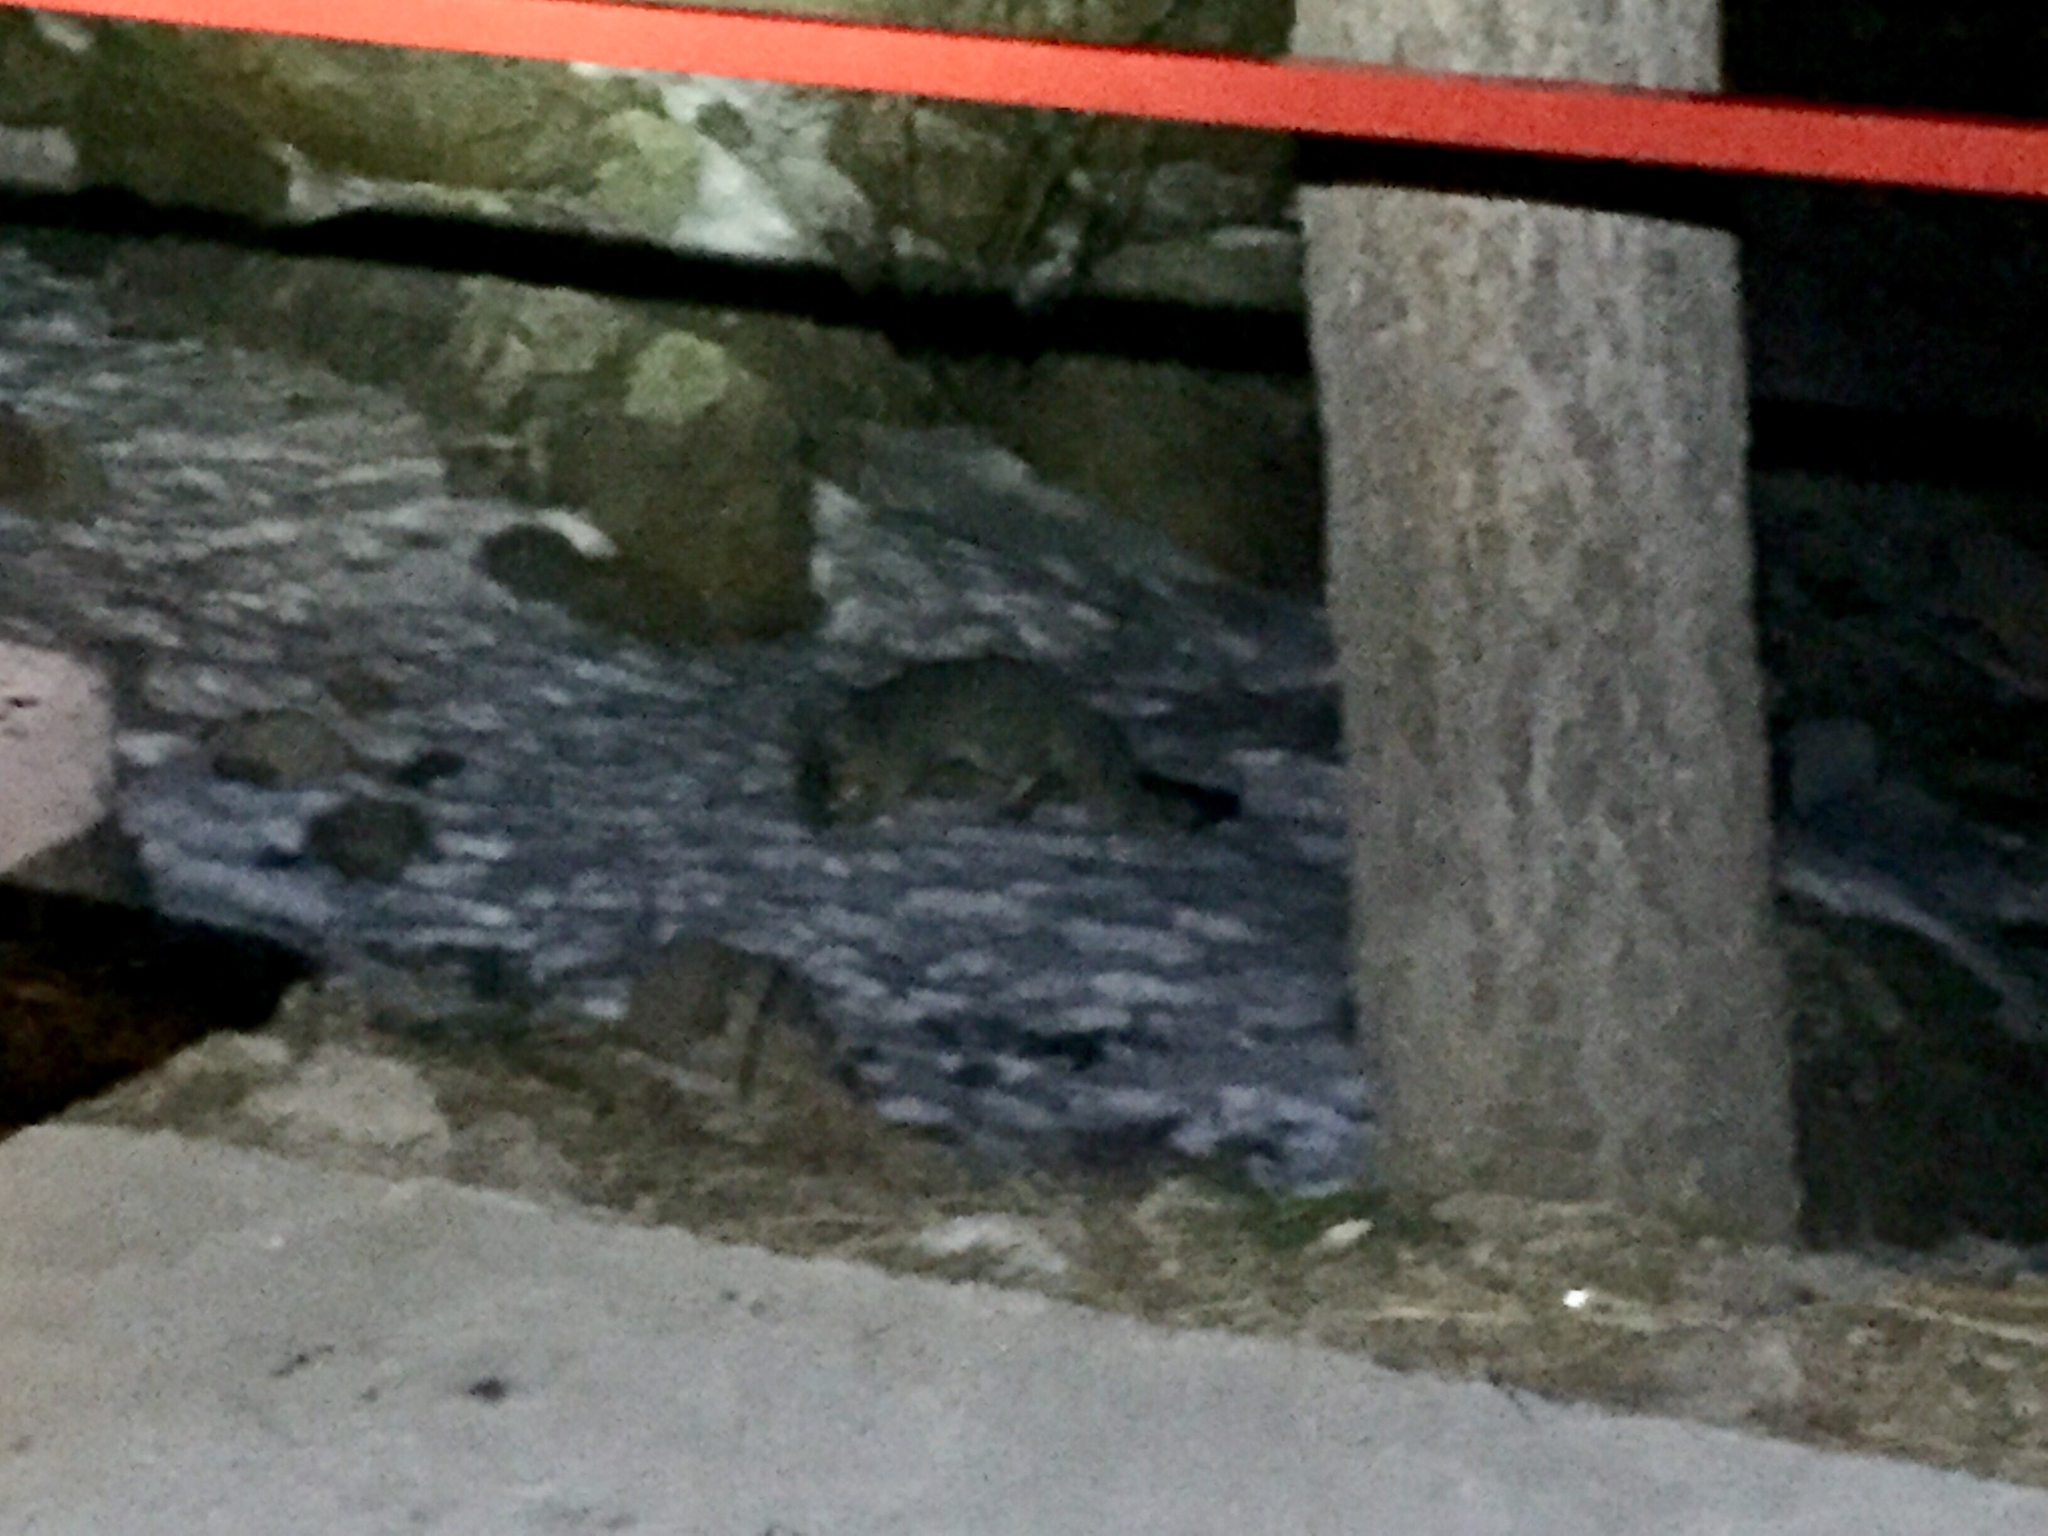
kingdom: Animalia
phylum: Chordata
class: Mammalia
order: Carnivora
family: Canidae
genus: Urocyon
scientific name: Urocyon cinereoargenteus
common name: Gray fox
